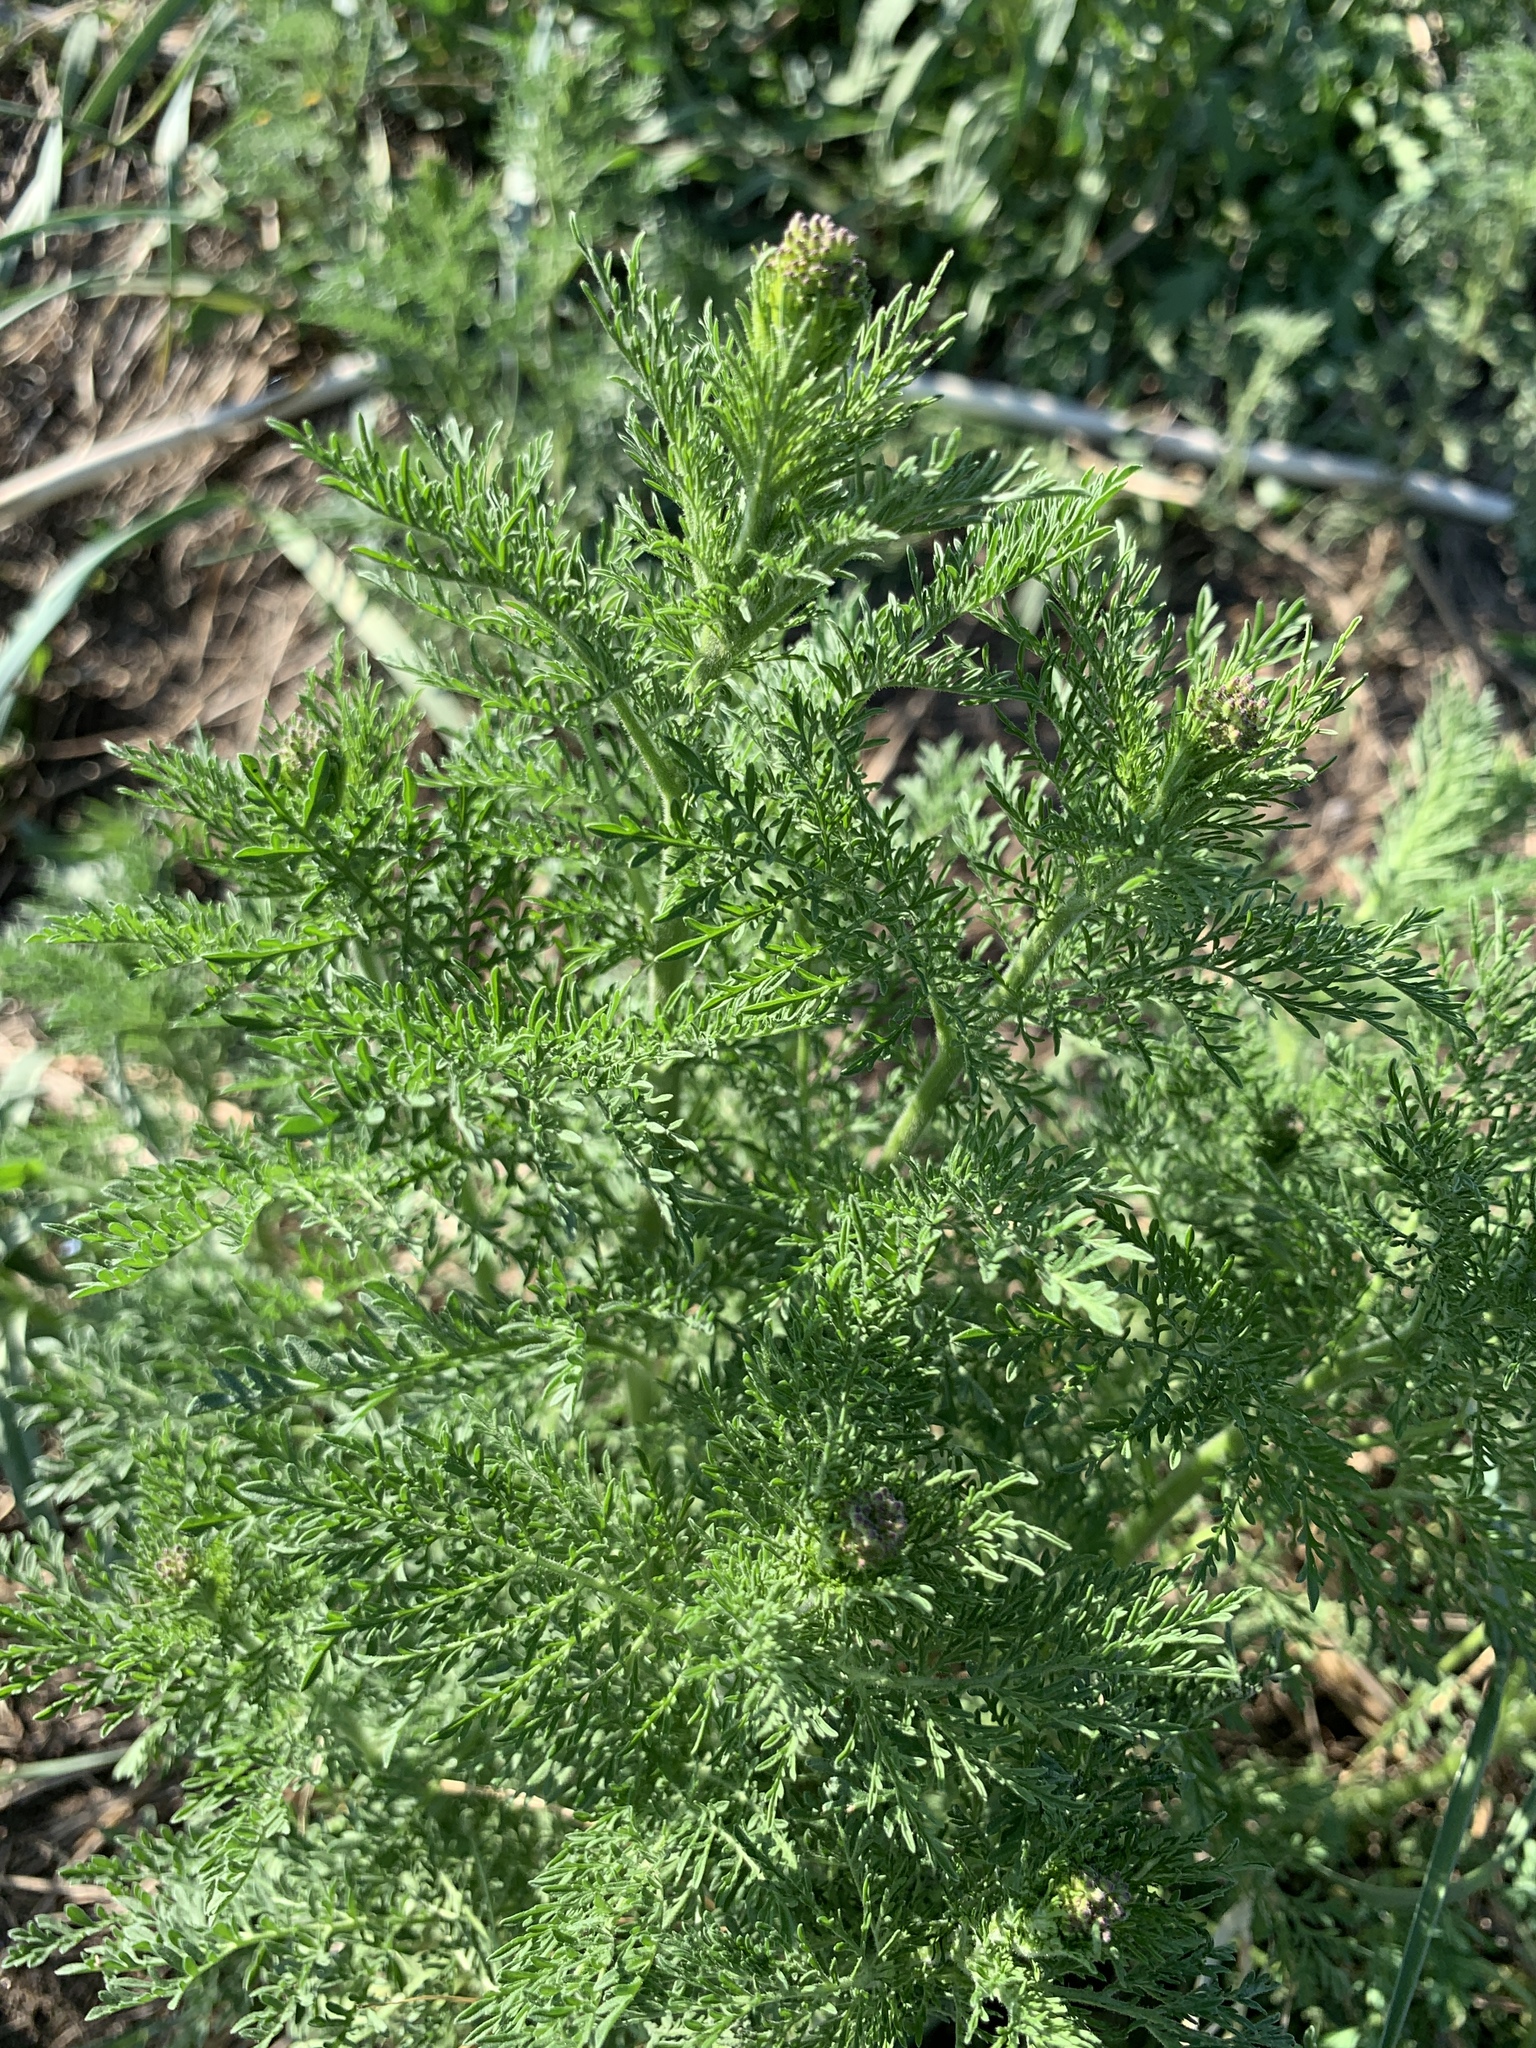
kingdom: Plantae
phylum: Tracheophyta
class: Magnoliopsida
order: Brassicales
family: Brassicaceae
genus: Descurainia
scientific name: Descurainia sophia
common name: Flixweed
